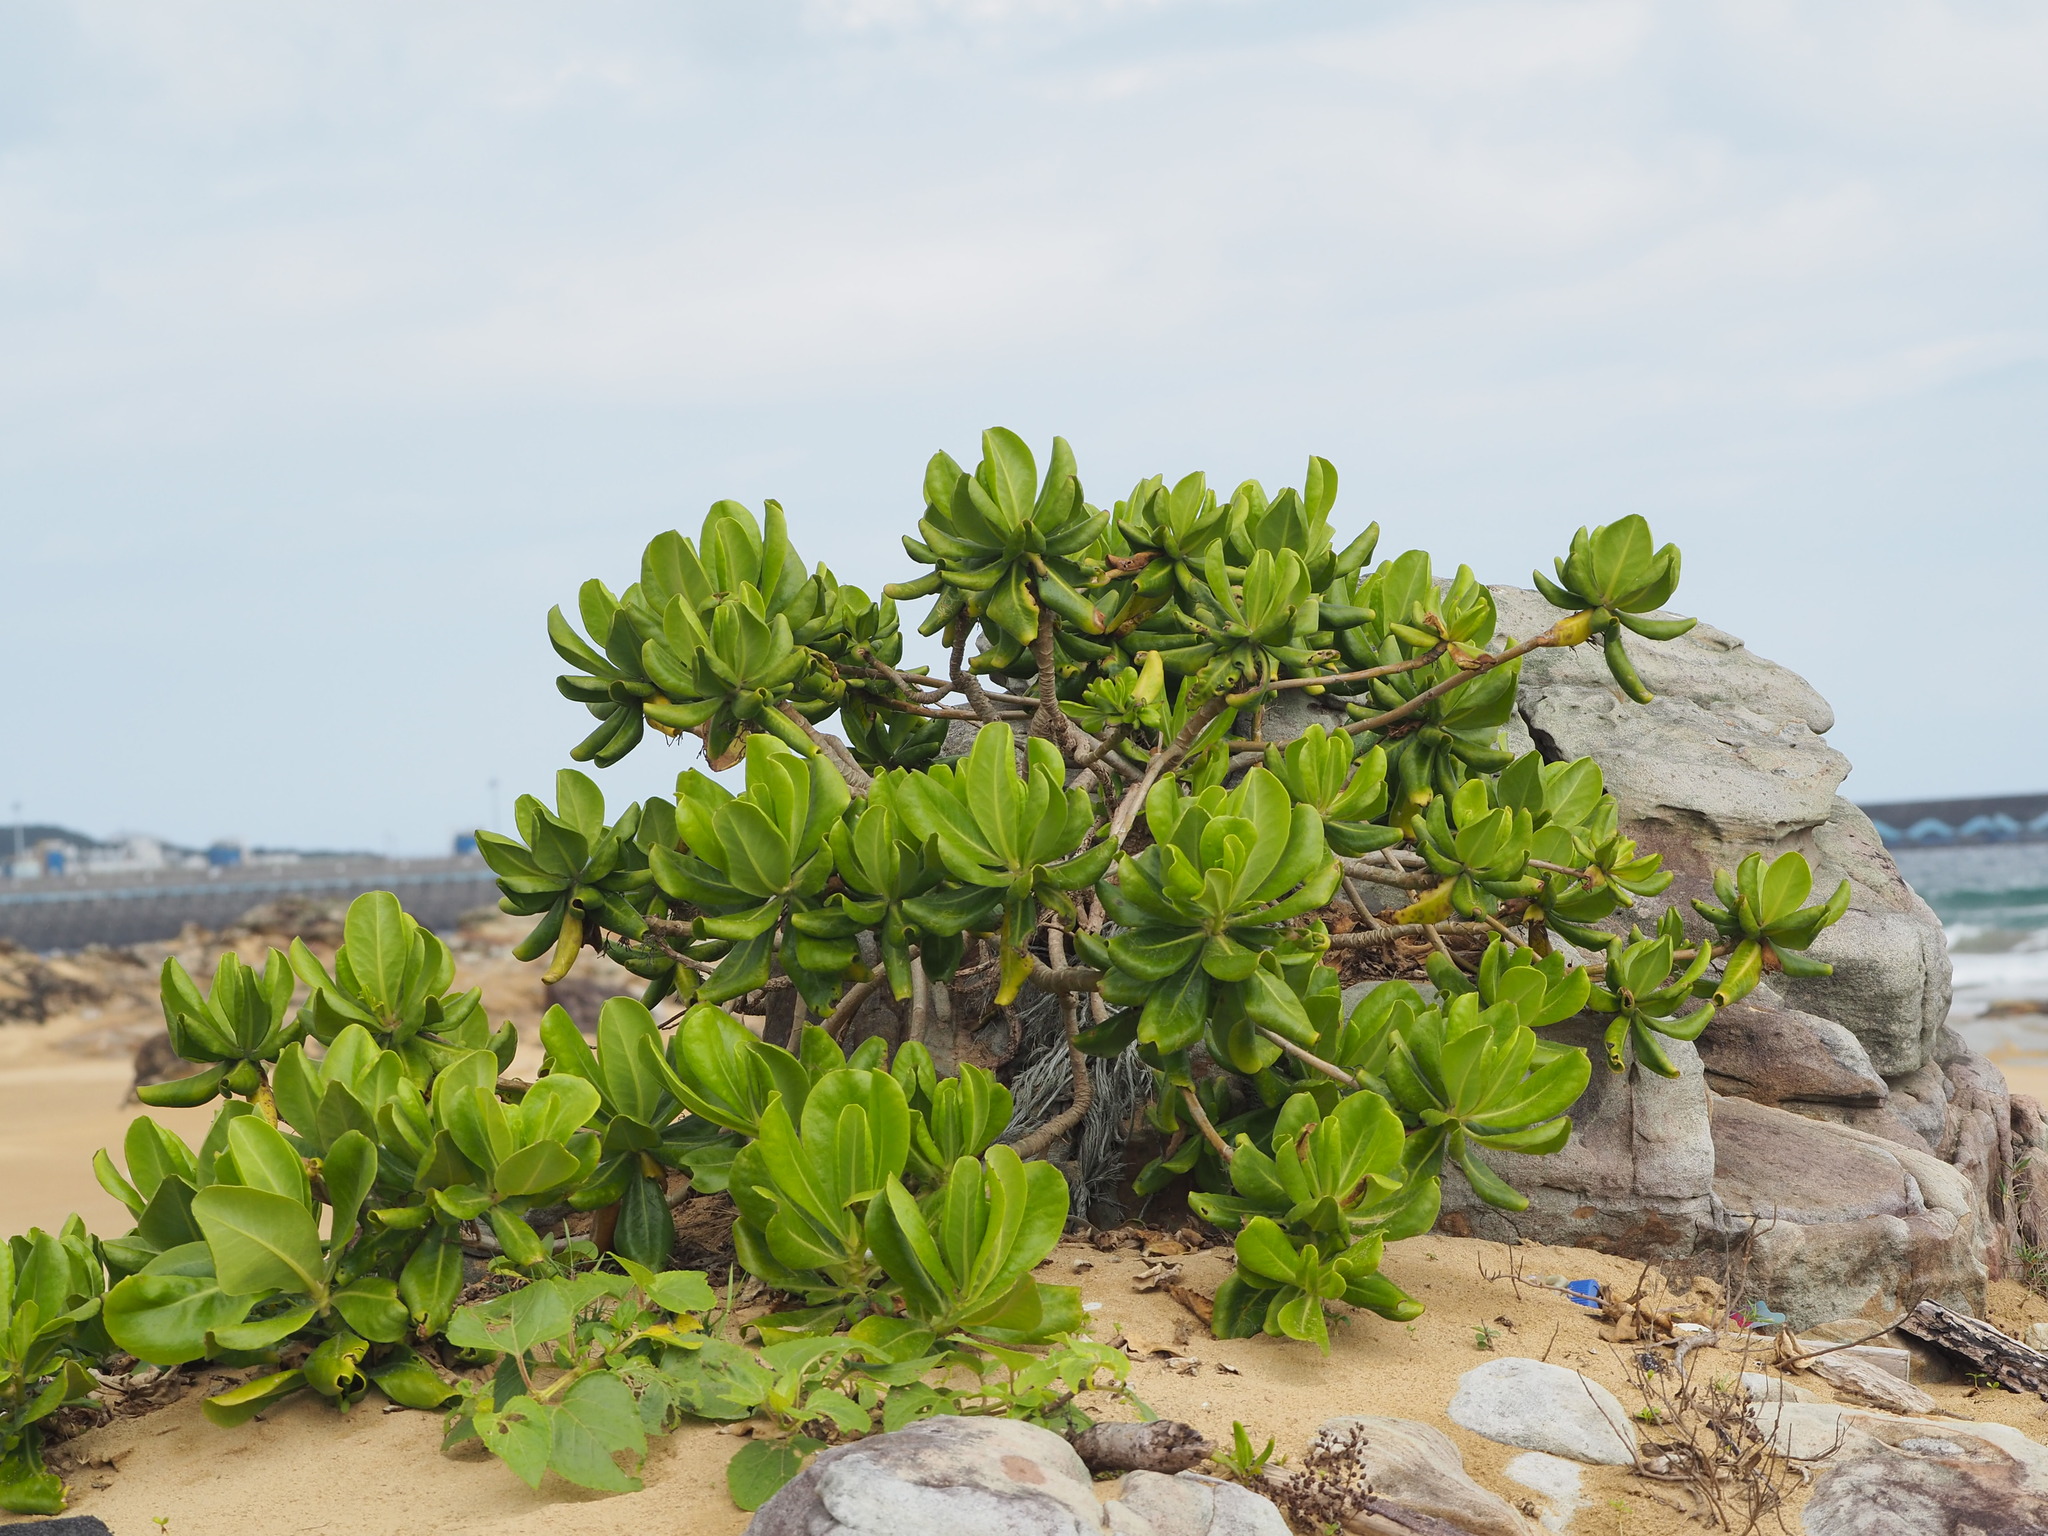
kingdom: Plantae
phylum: Tracheophyta
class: Magnoliopsida
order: Asterales
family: Goodeniaceae
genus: Scaevola
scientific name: Scaevola taccada
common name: Sea lettucetree
